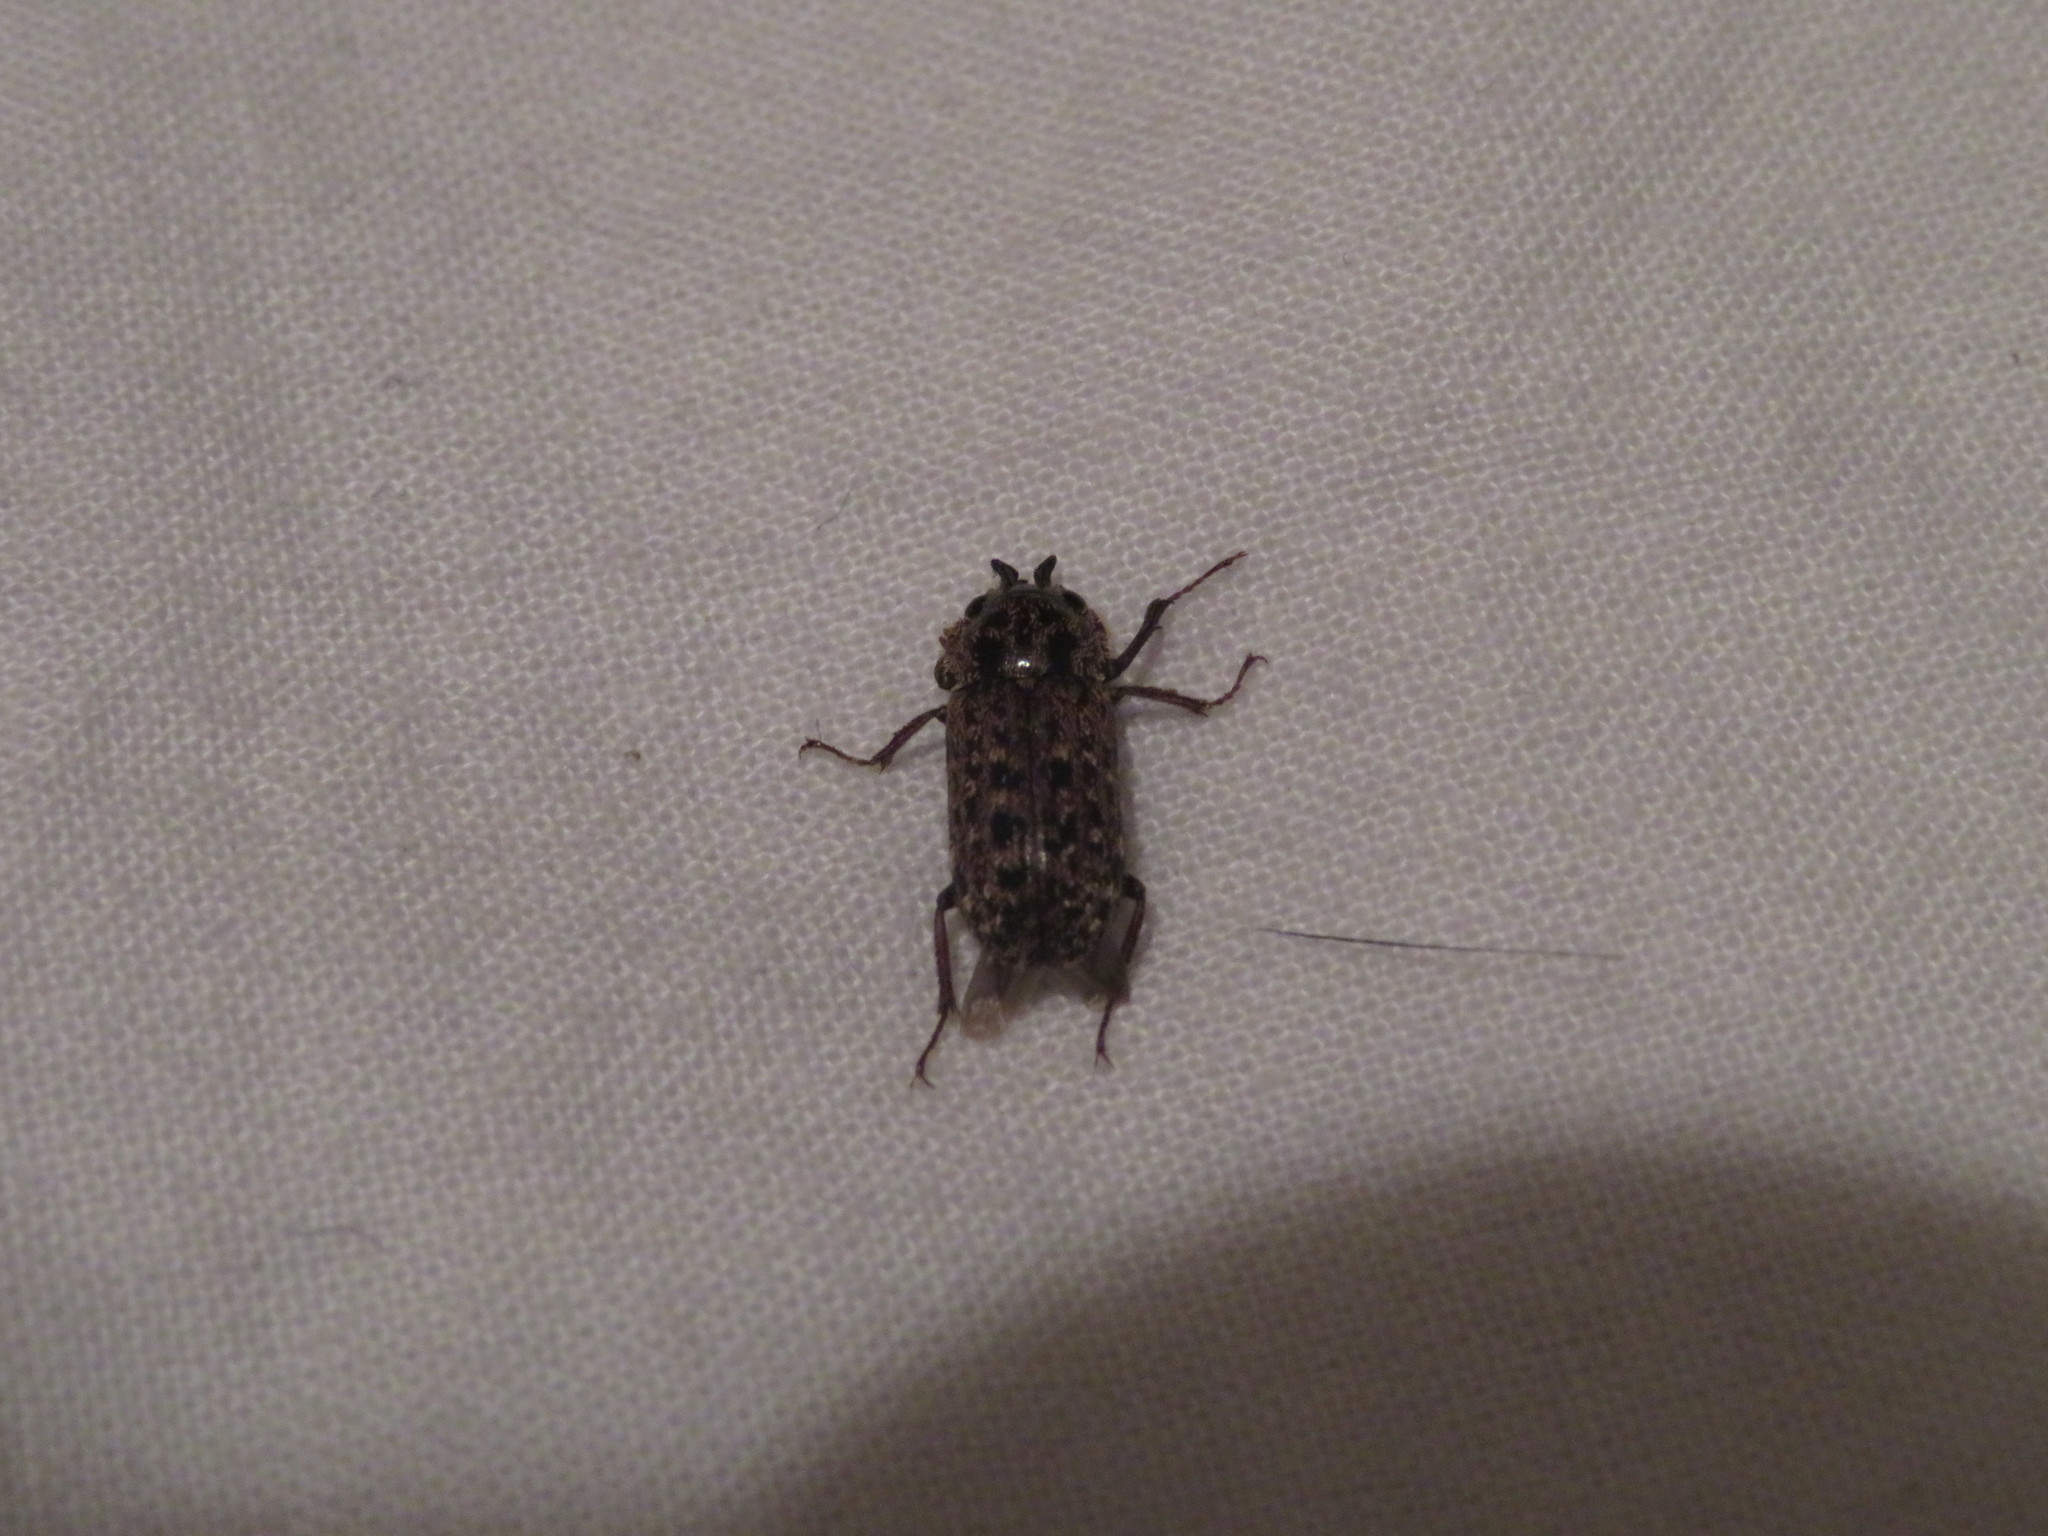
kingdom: Animalia
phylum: Arthropoda
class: Insecta
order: Coleoptera
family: Lucanidae
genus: Mitophyllus
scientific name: Mitophyllus irroratus
